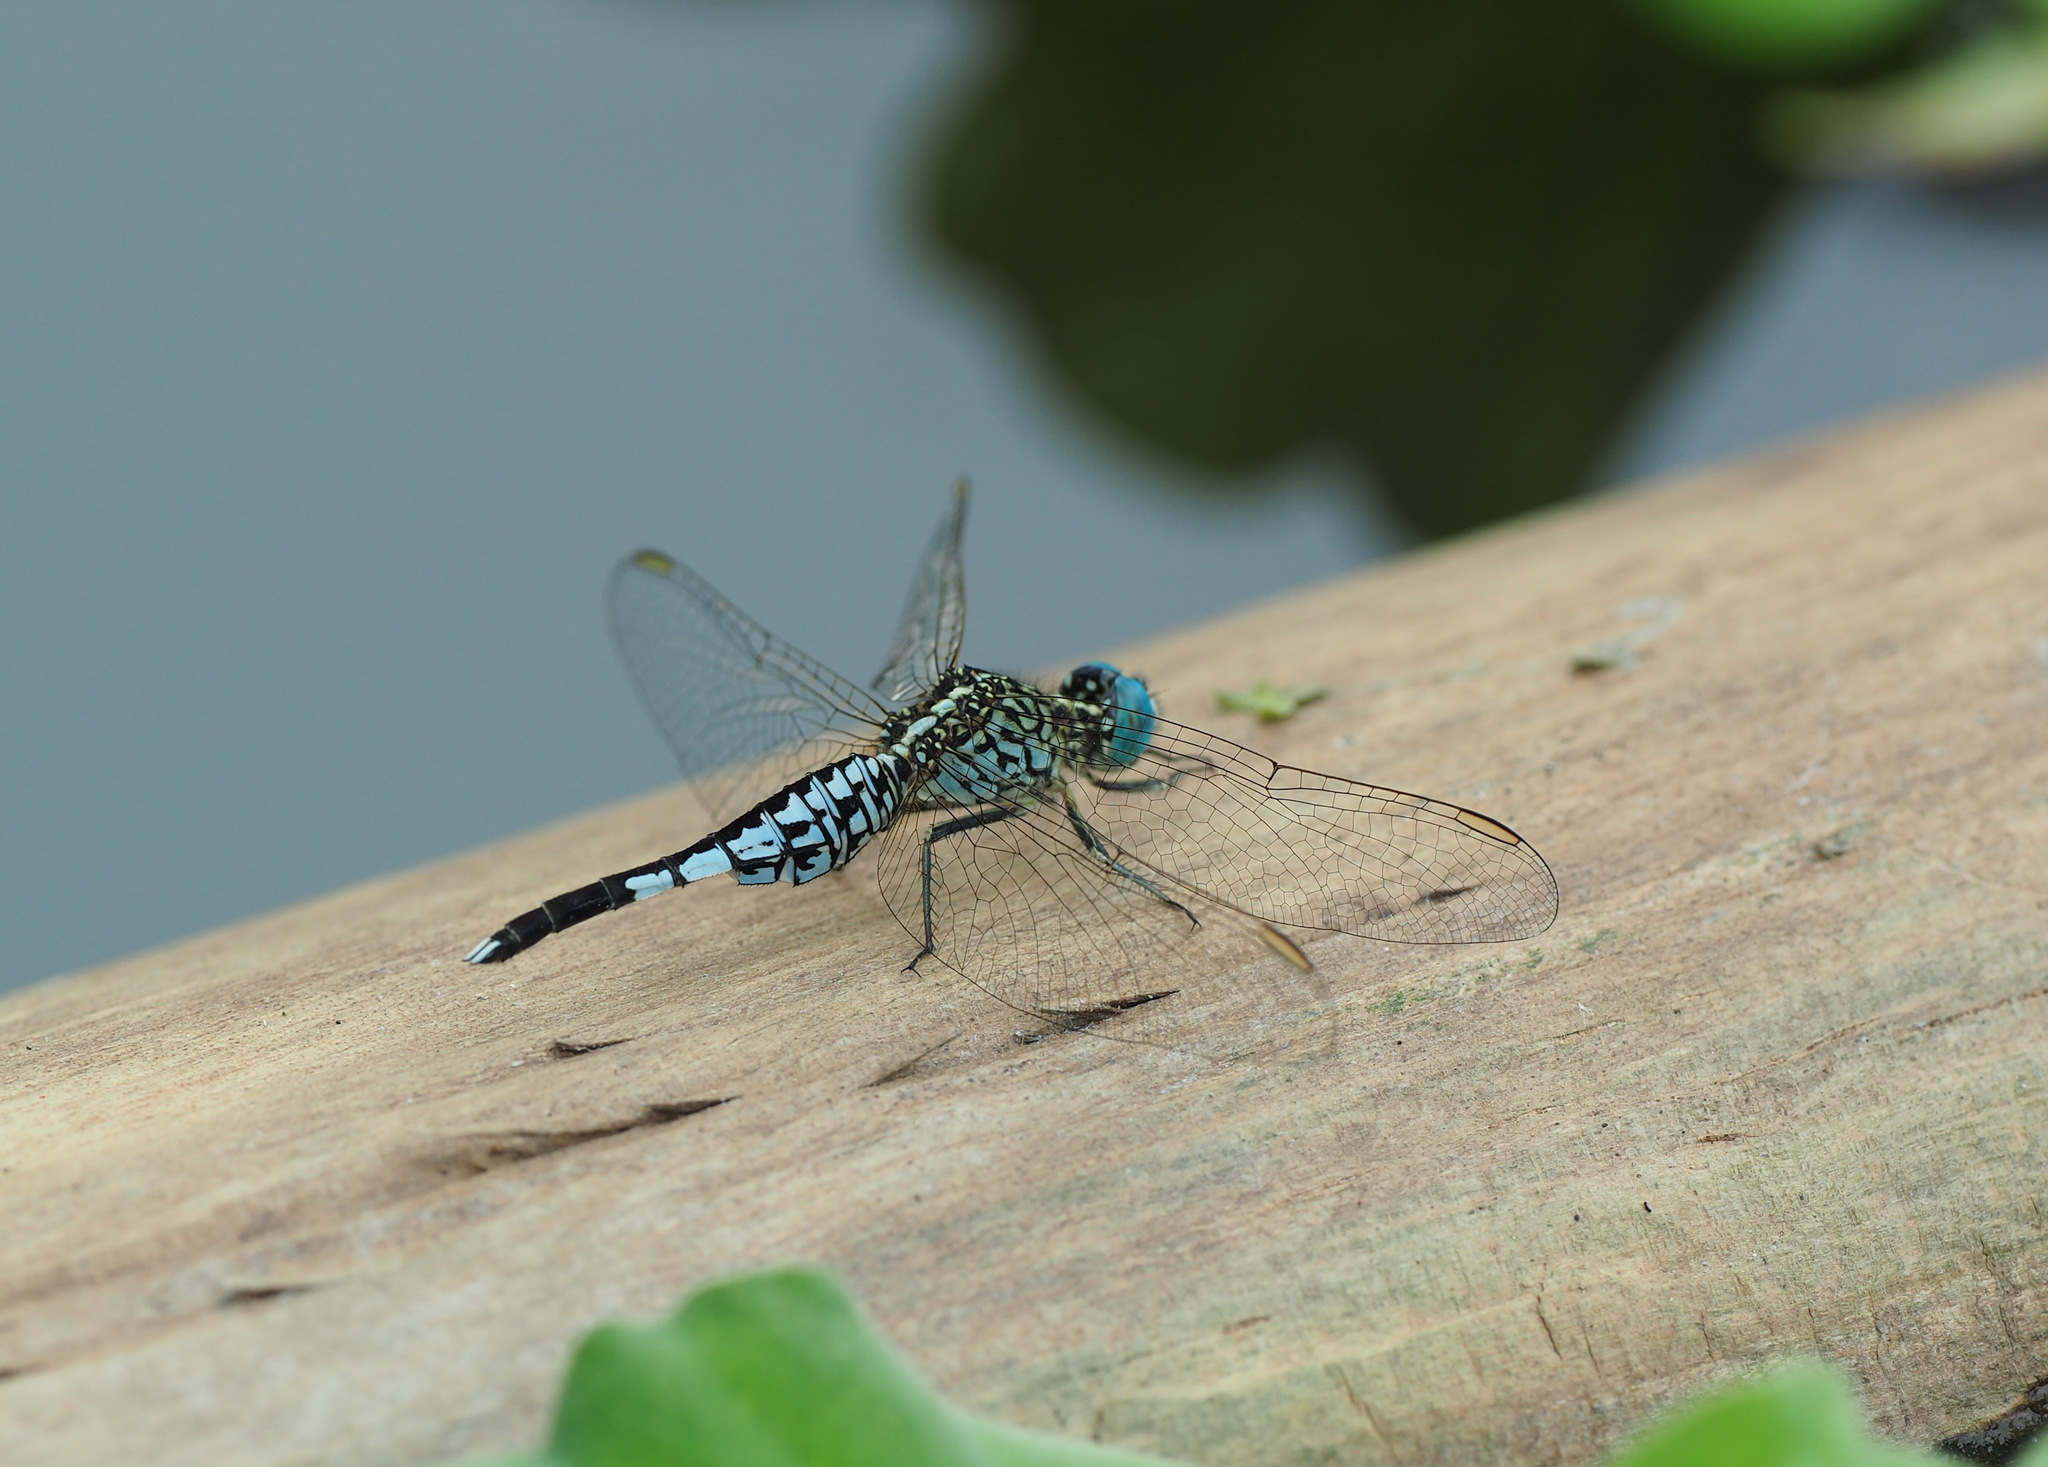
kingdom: Animalia
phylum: Arthropoda
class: Insecta
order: Odonata
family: Libellulidae
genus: Acisoma
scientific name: Acisoma panorpoides
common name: Asian pintail
